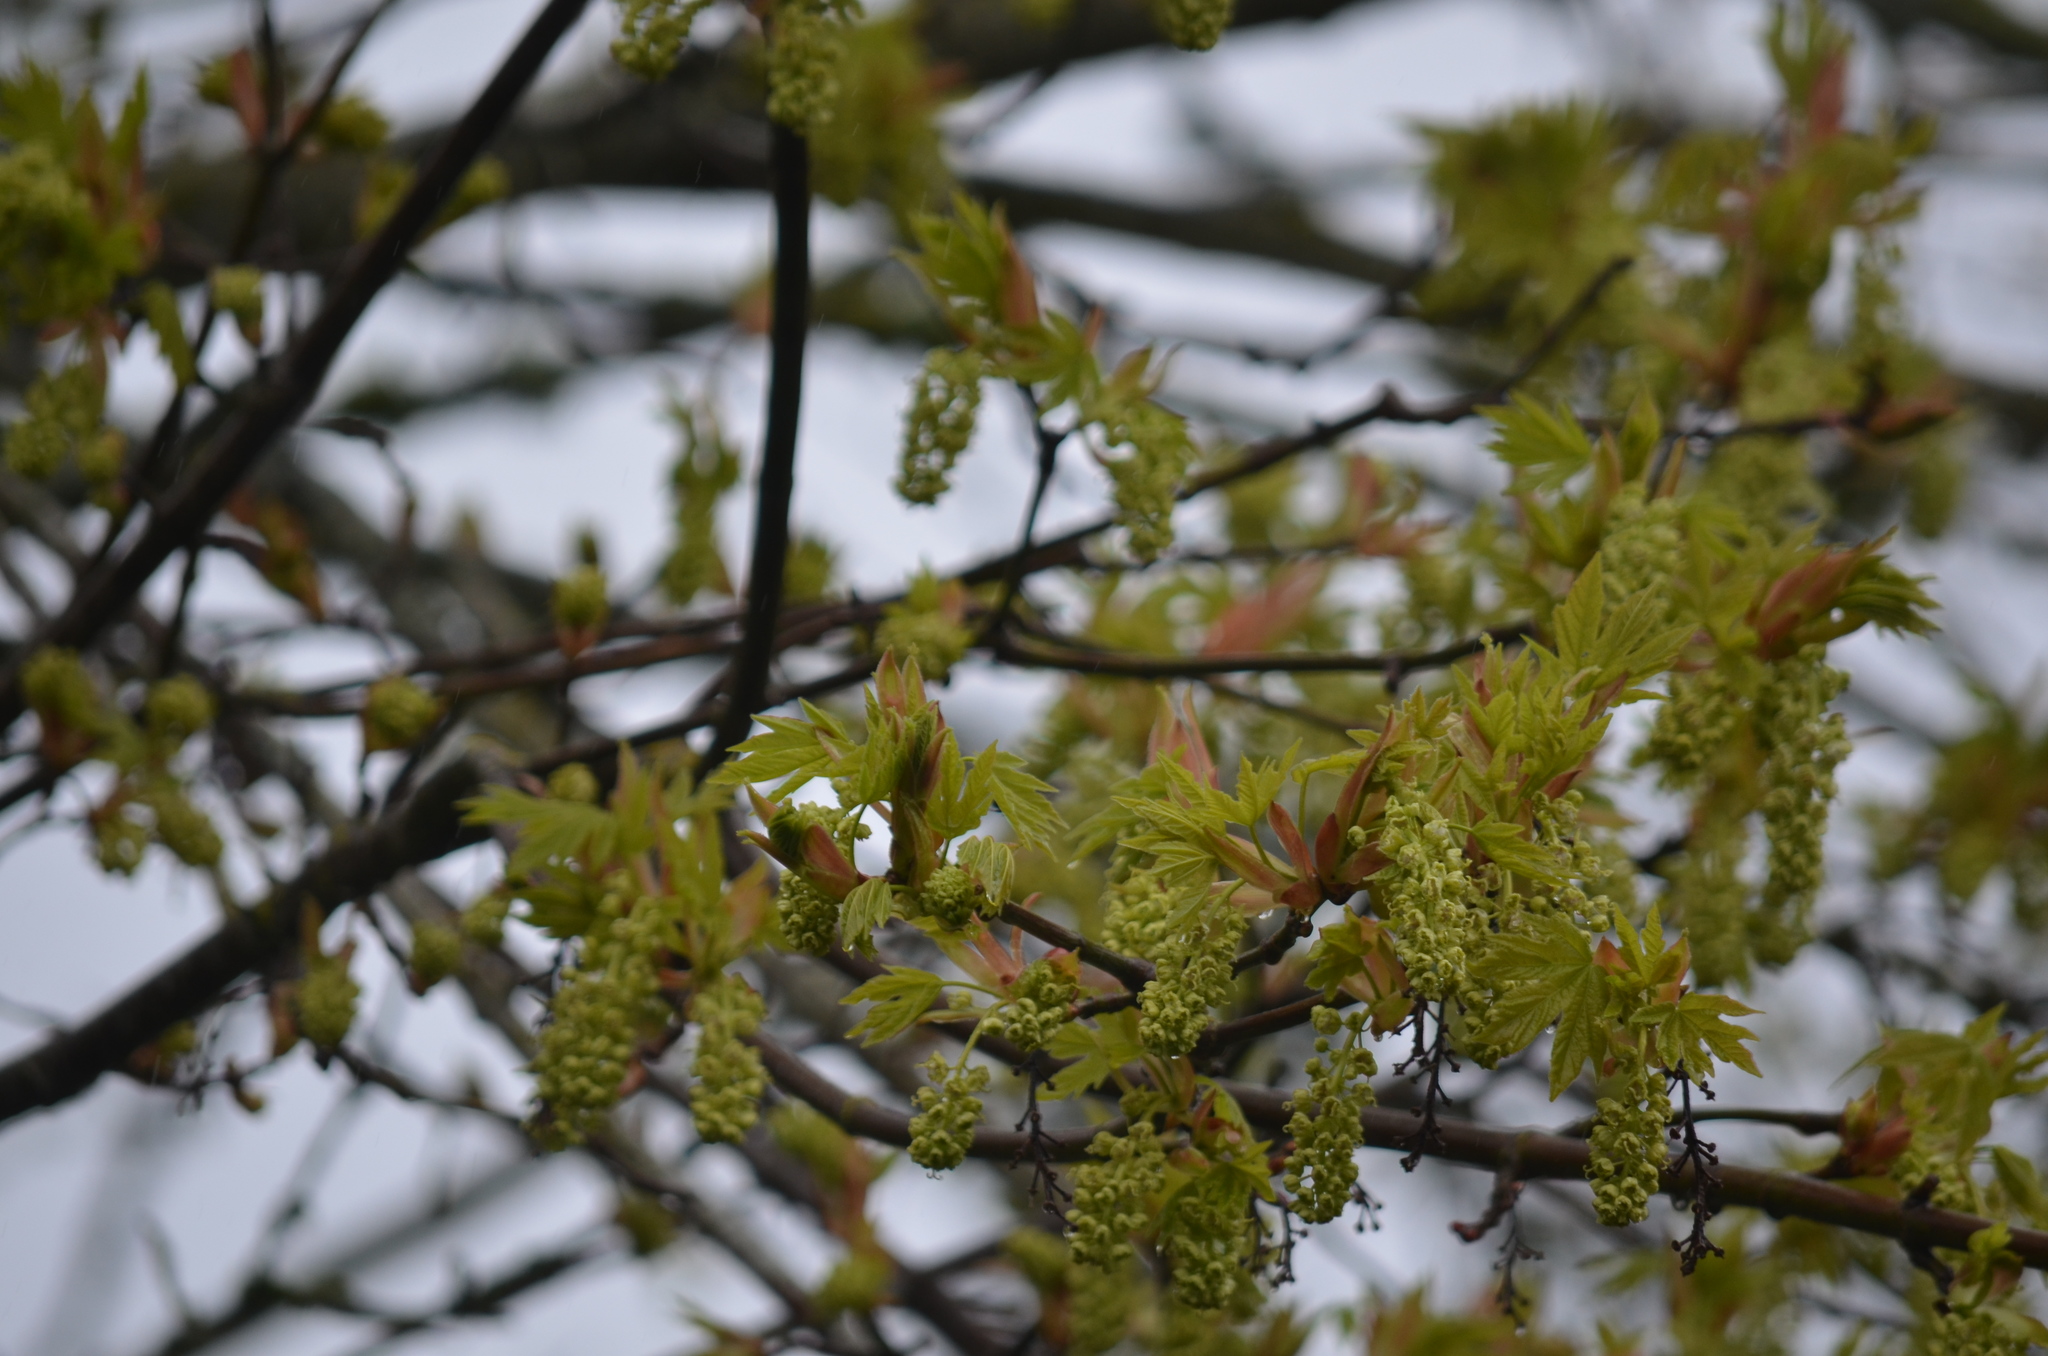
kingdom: Plantae
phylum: Tracheophyta
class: Magnoliopsida
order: Sapindales
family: Sapindaceae
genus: Acer
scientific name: Acer macrophyllum
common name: Oregon maple
